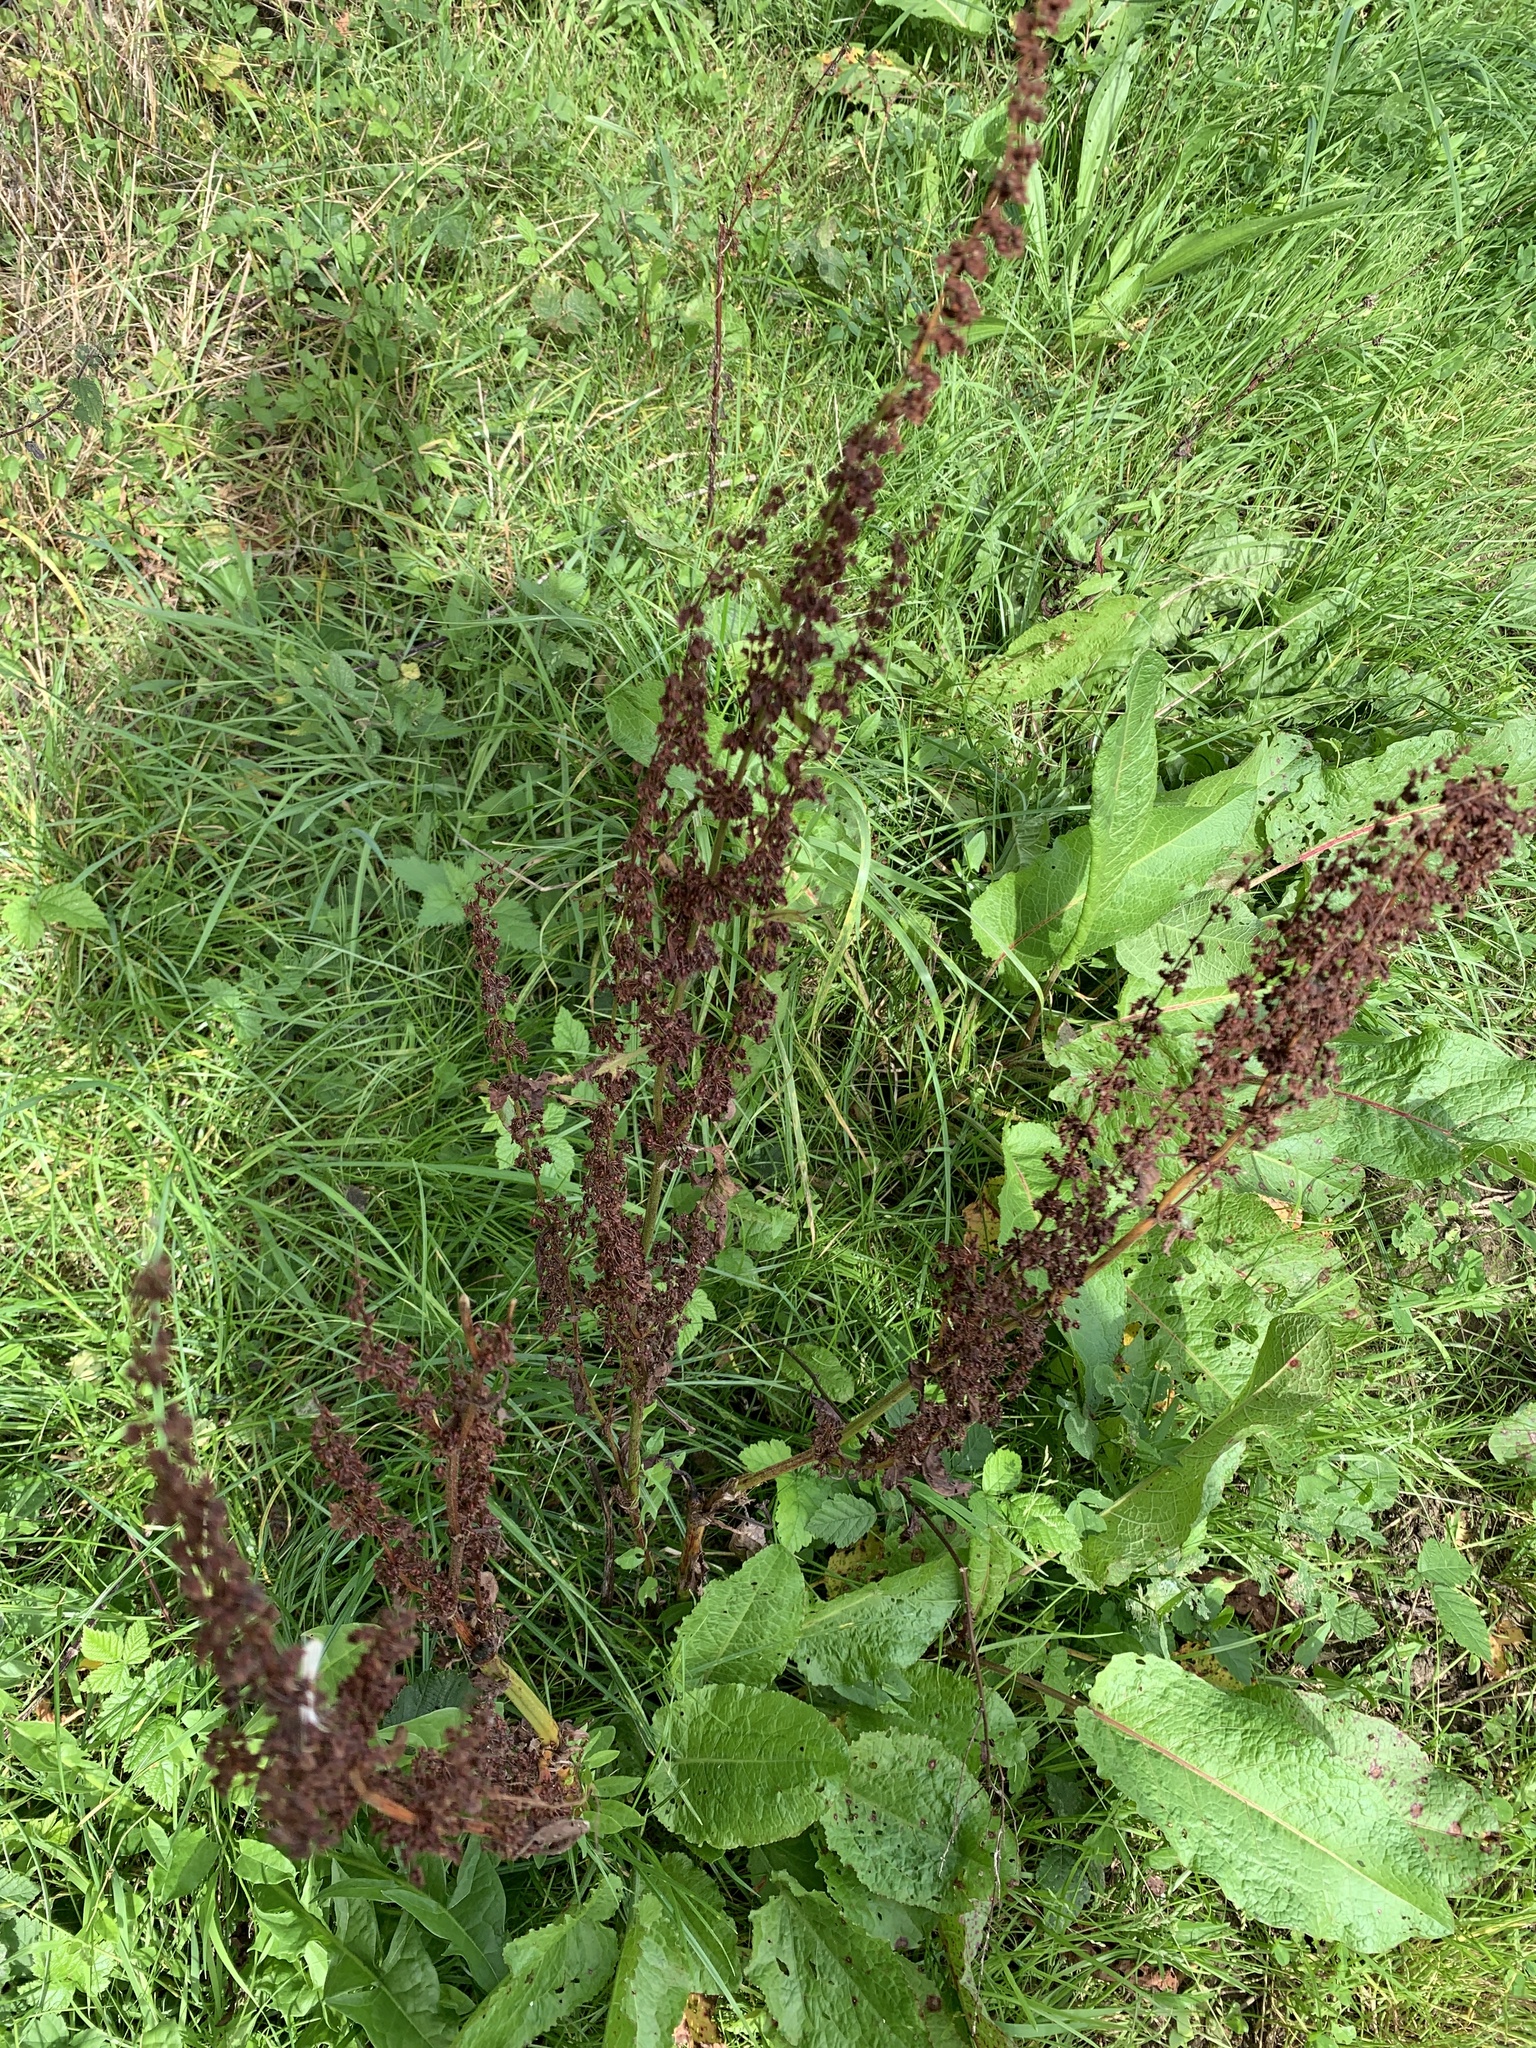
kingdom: Plantae
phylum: Tracheophyta
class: Magnoliopsida
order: Caryophyllales
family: Polygonaceae
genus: Rumex
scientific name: Rumex crispus
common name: Curled dock
